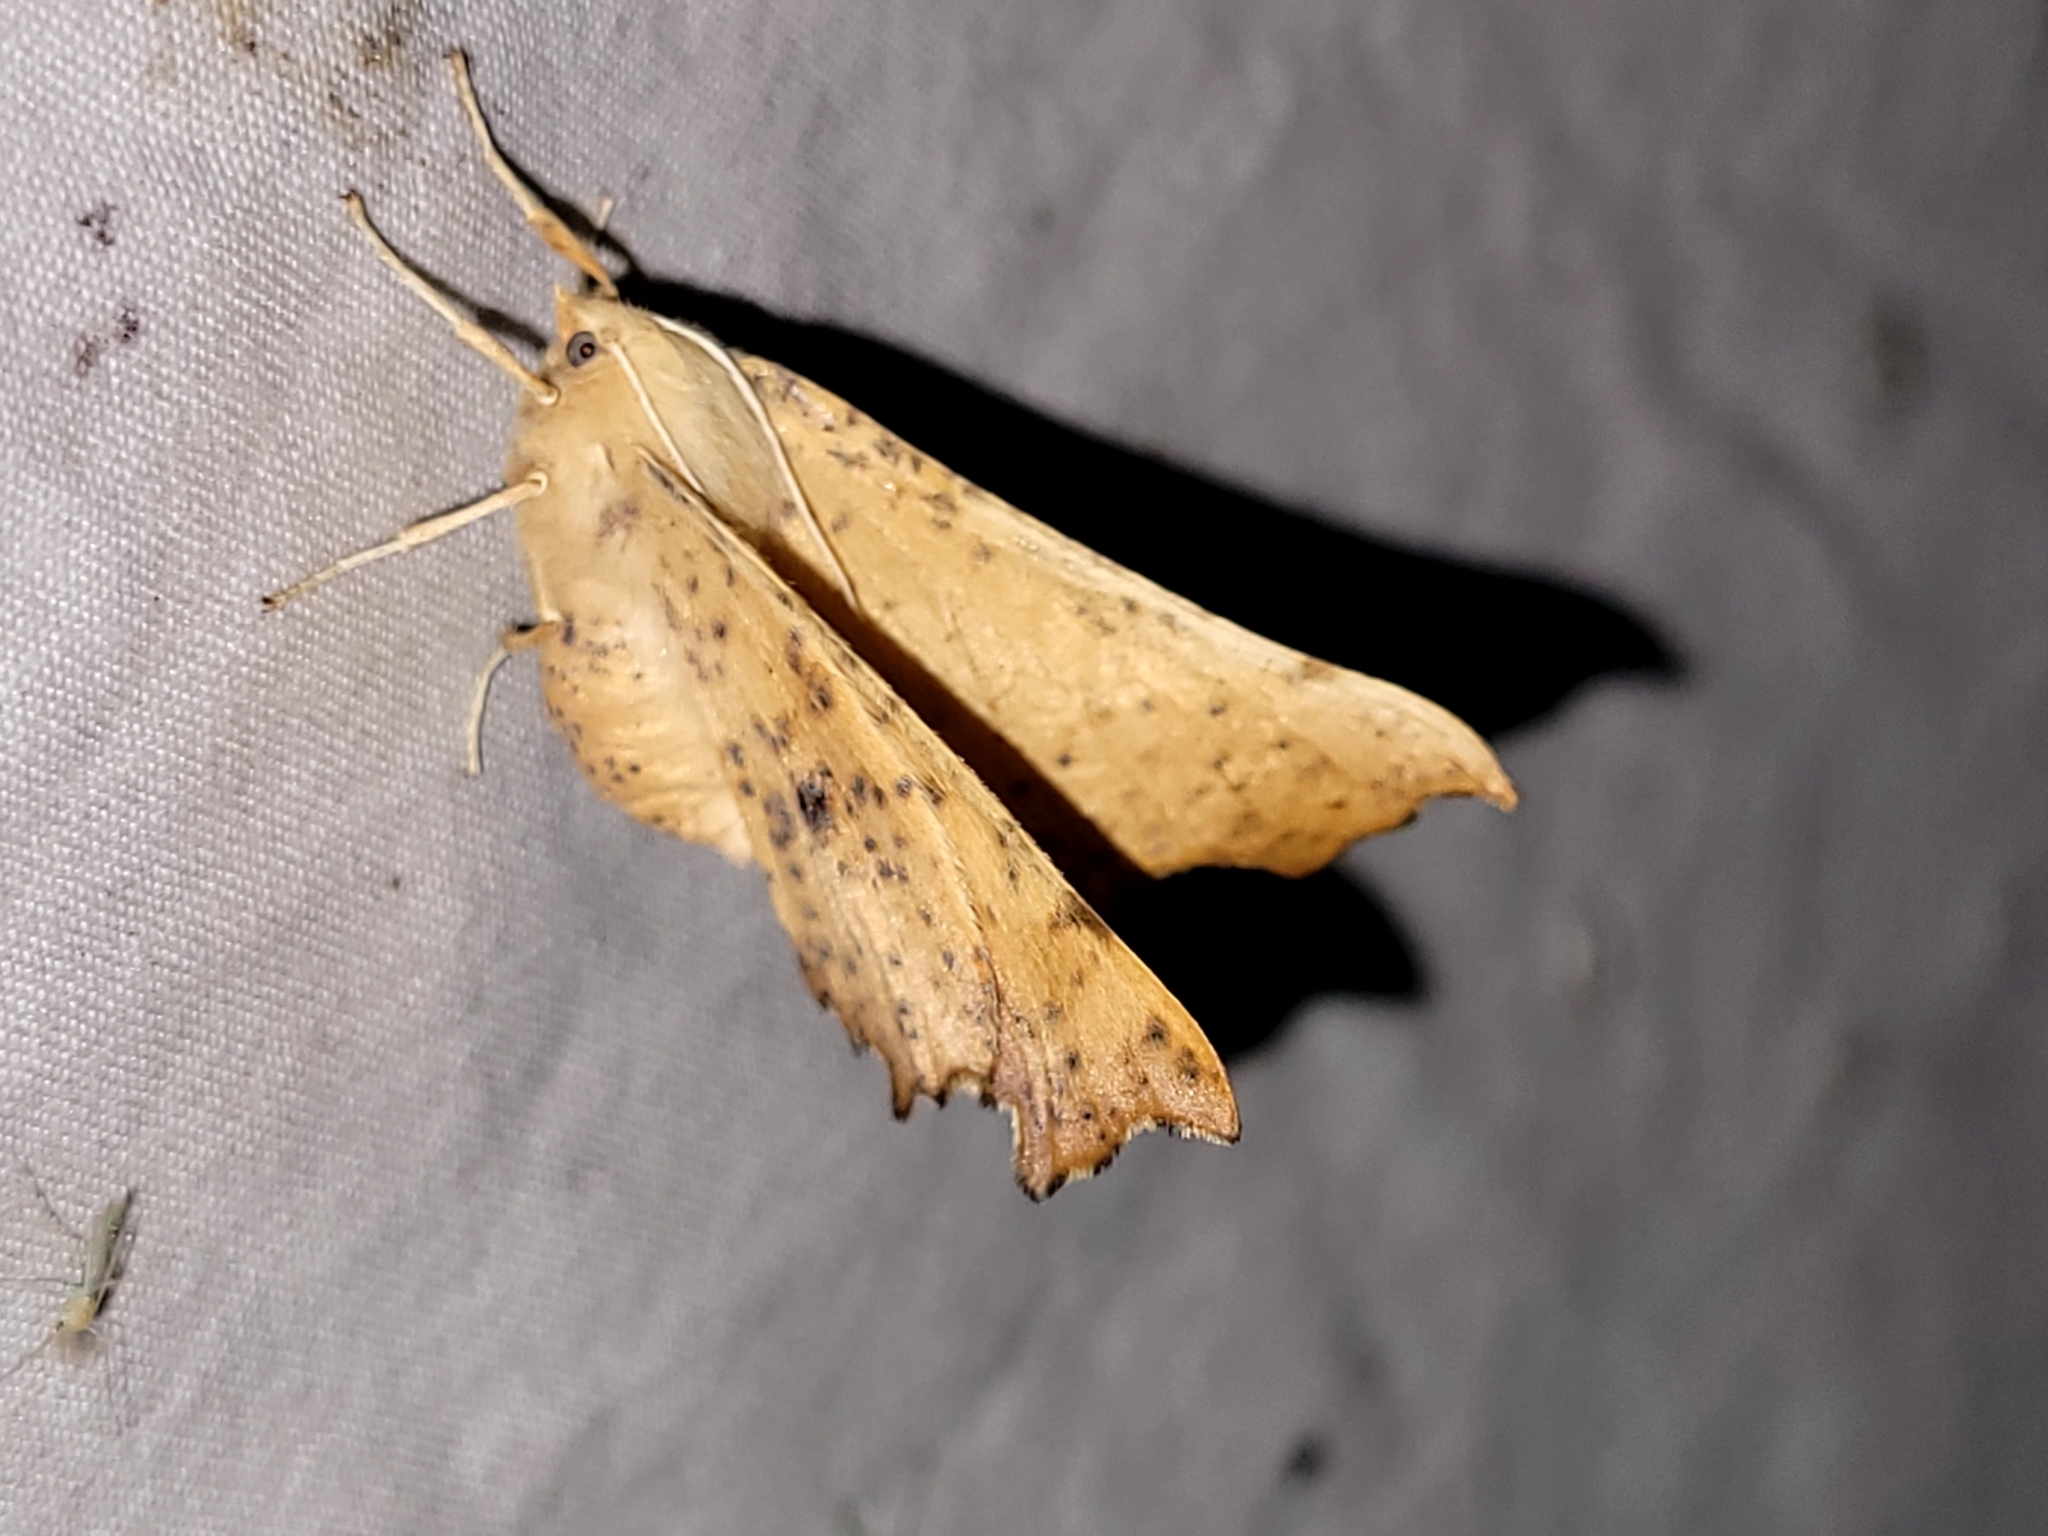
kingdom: Animalia
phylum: Arthropoda
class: Insecta
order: Lepidoptera
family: Geometridae
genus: Ennomos
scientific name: Ennomos magnaria
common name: Maple spanworm
